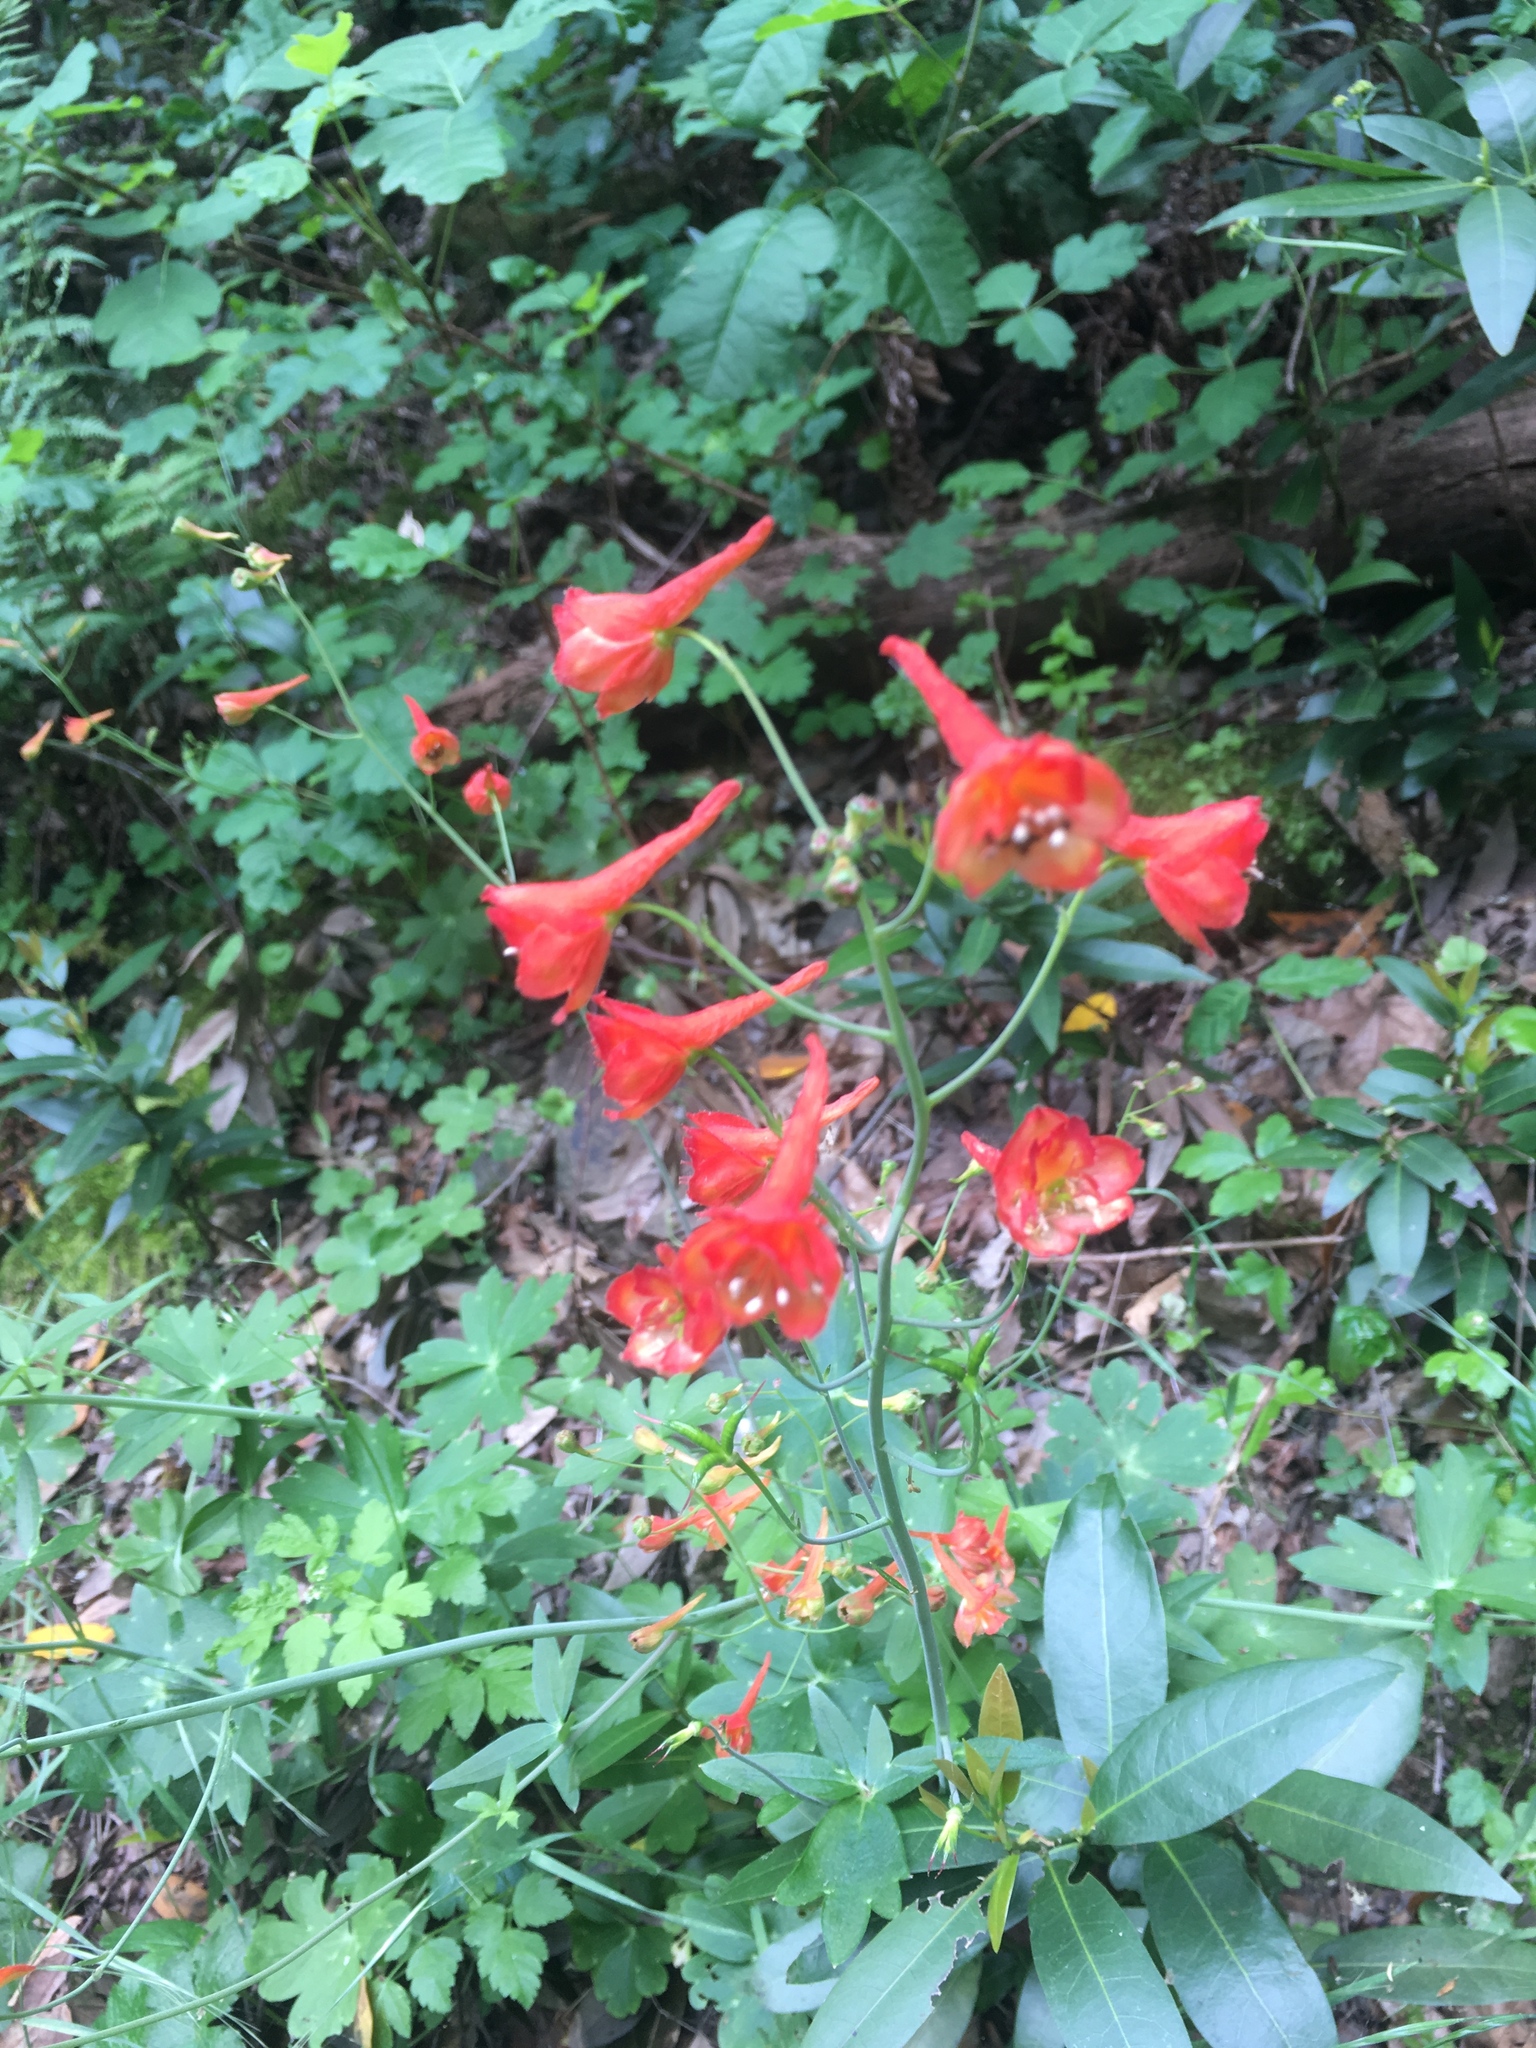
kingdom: Plantae
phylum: Tracheophyta
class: Magnoliopsida
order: Ranunculales
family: Ranunculaceae
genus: Delphinium
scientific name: Delphinium nudicaule
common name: Red larkspur
